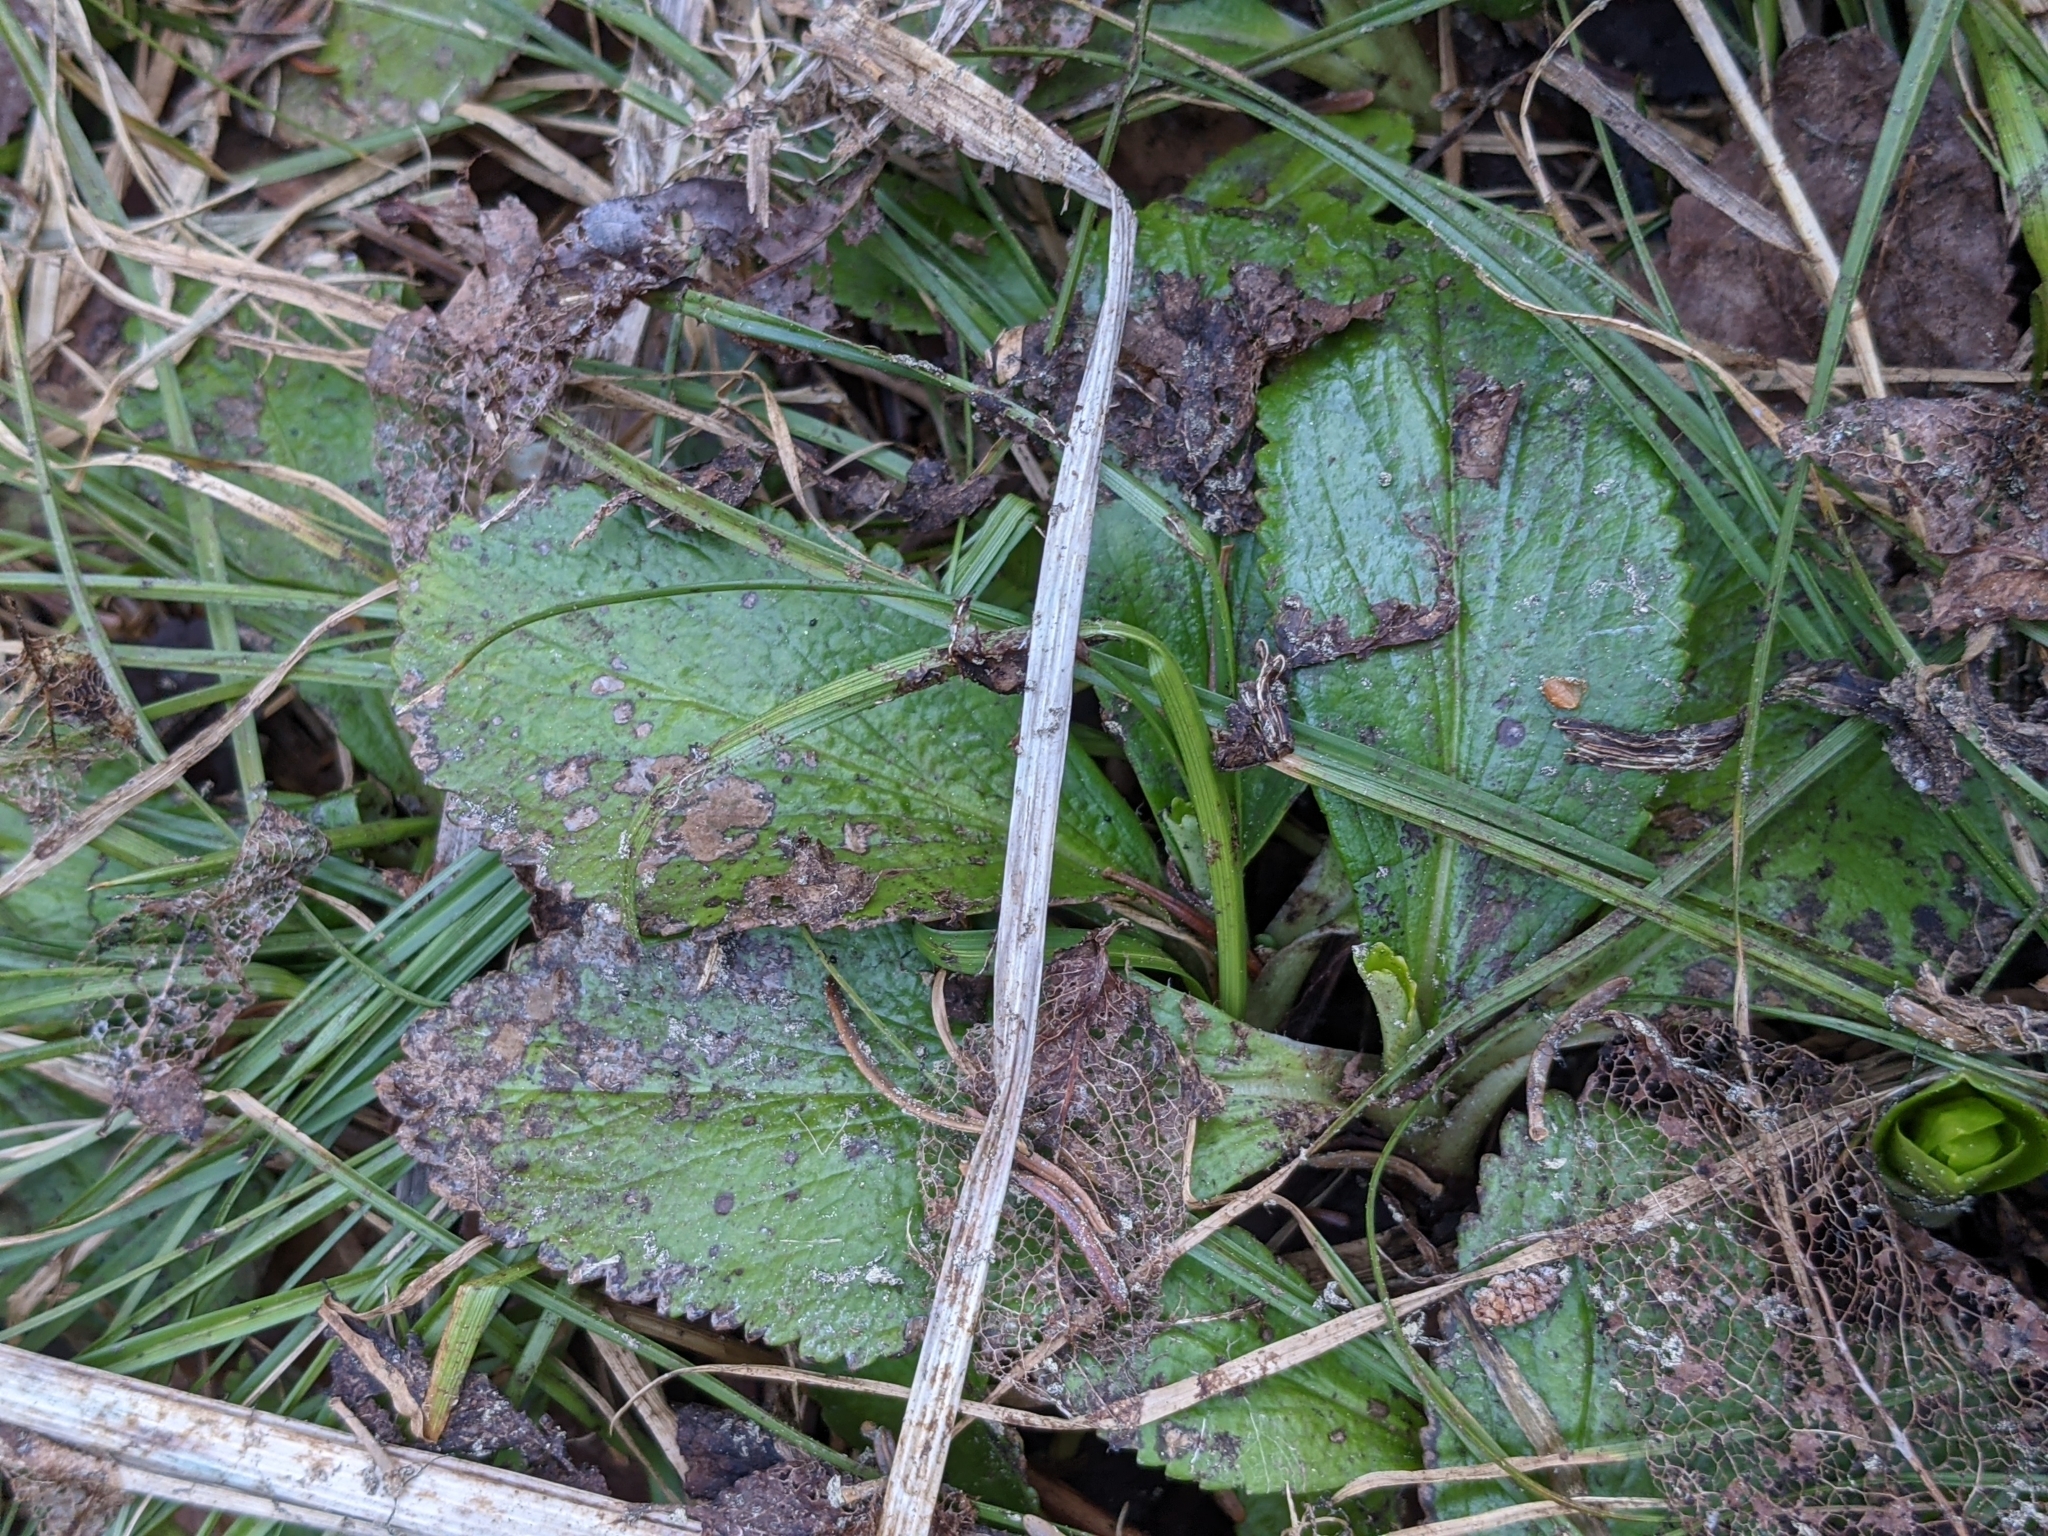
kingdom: Plantae
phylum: Tracheophyta
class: Magnoliopsida
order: Saxifragales
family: Saxifragaceae
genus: Leptarrhena
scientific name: Leptarrhena pyrolifolia
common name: Leatherleaf-saxifrage
